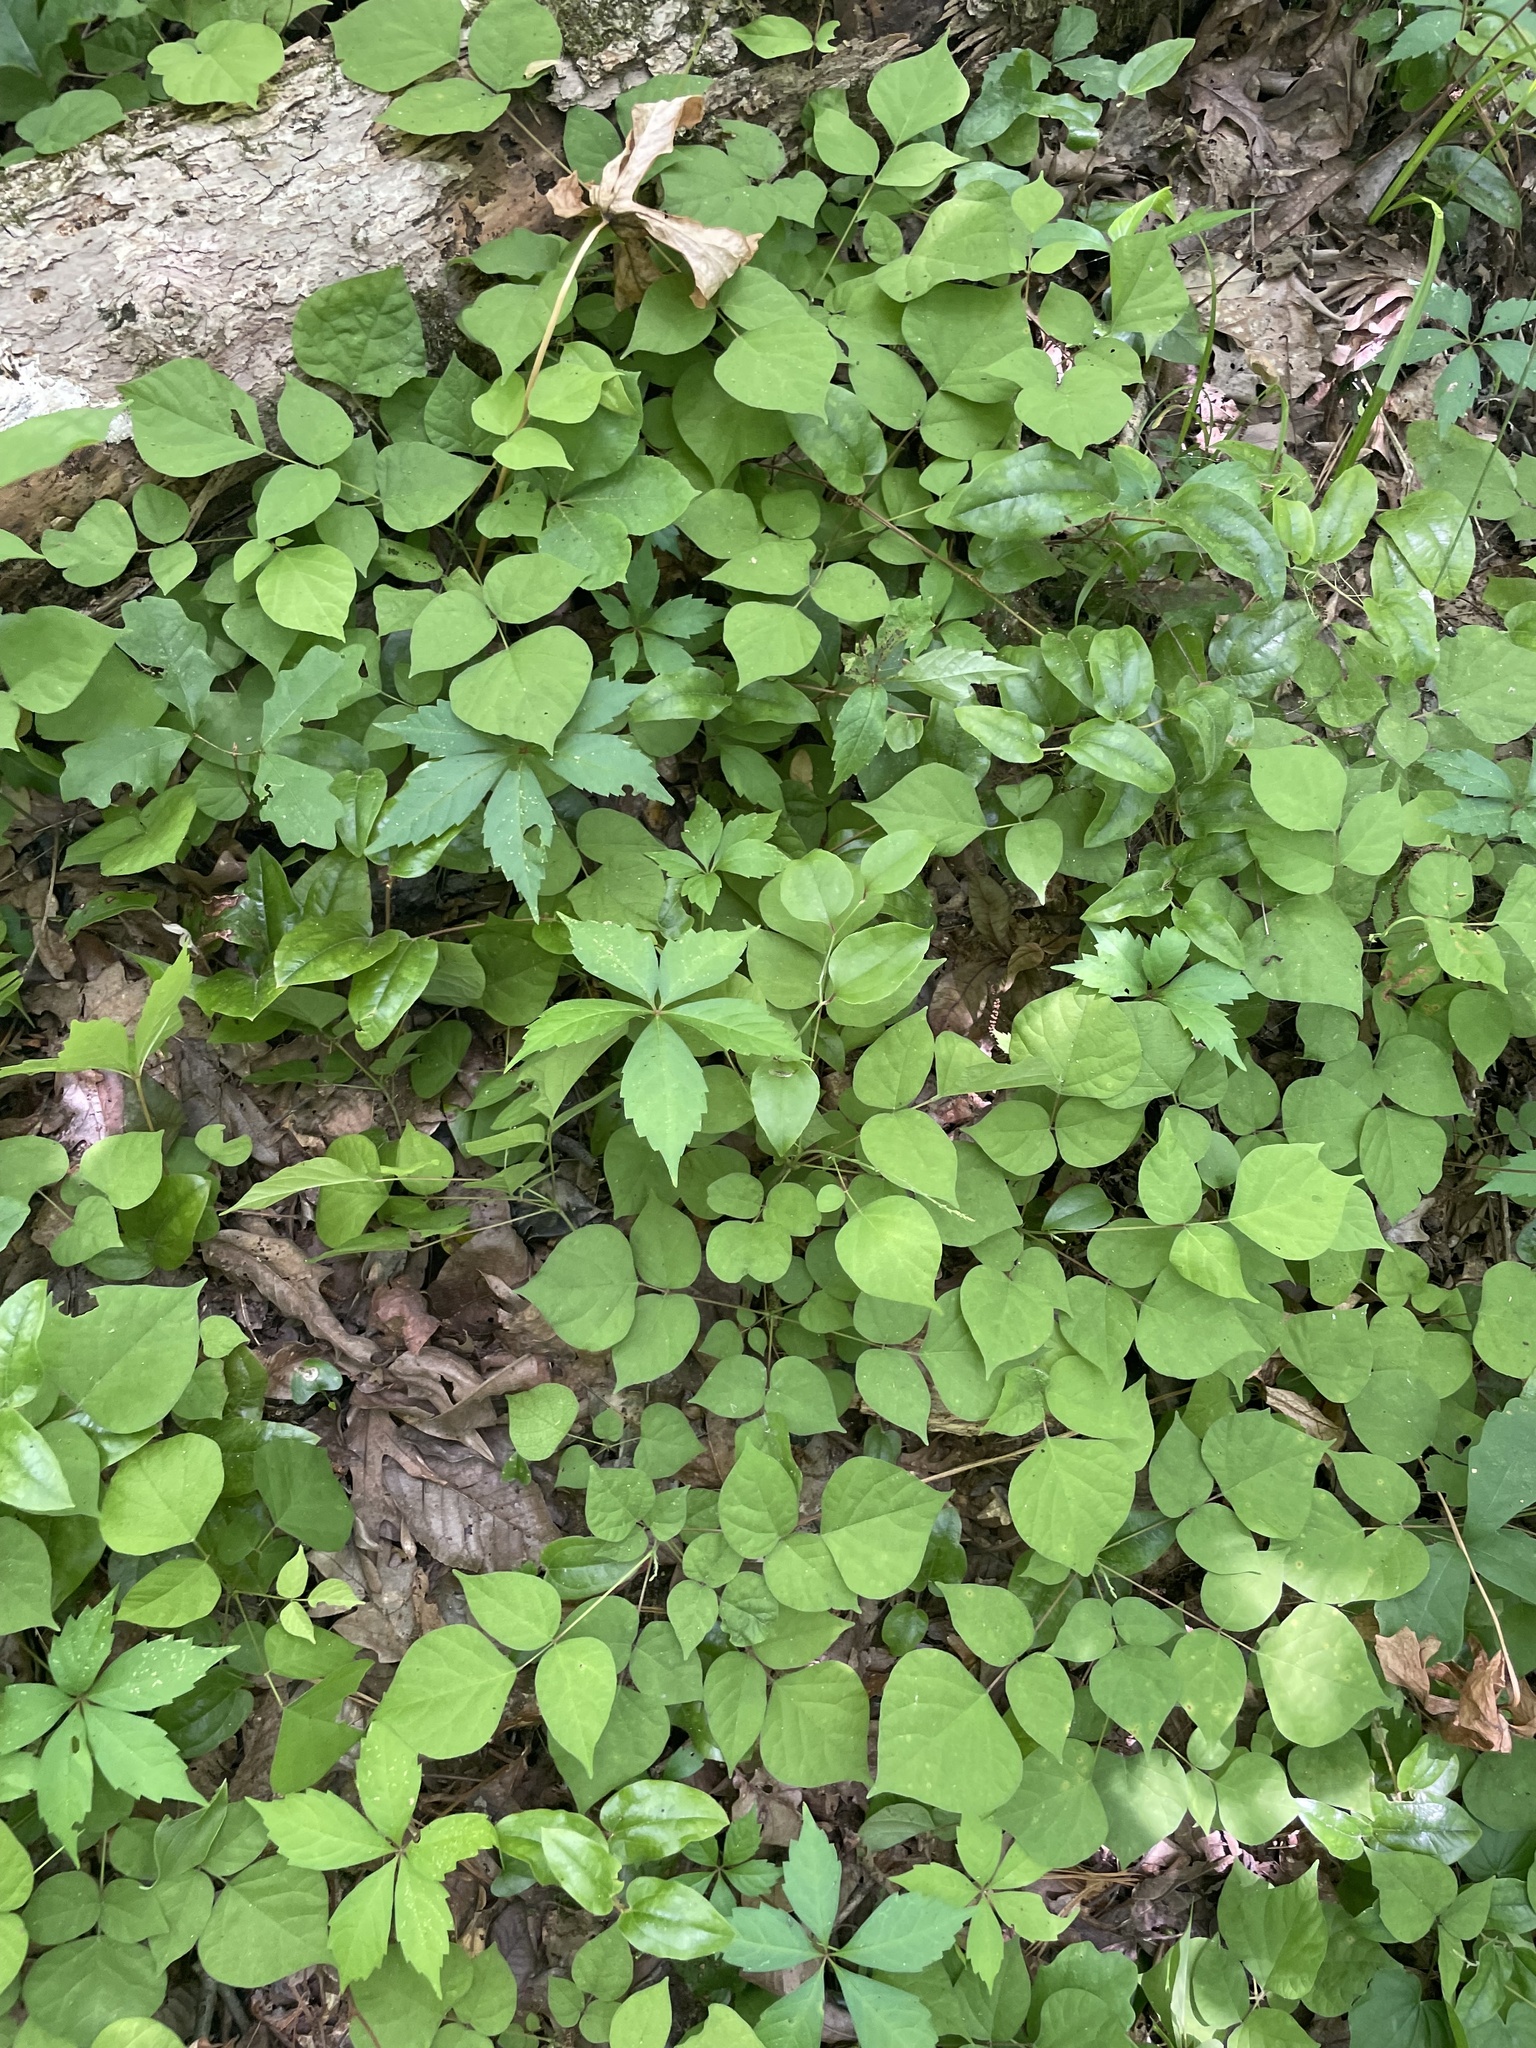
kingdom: Plantae
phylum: Tracheophyta
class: Magnoliopsida
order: Fabales
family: Fabaceae
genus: Hylodesmum
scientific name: Hylodesmum glutinosum
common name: Clustered-leaved tick-trefoil
